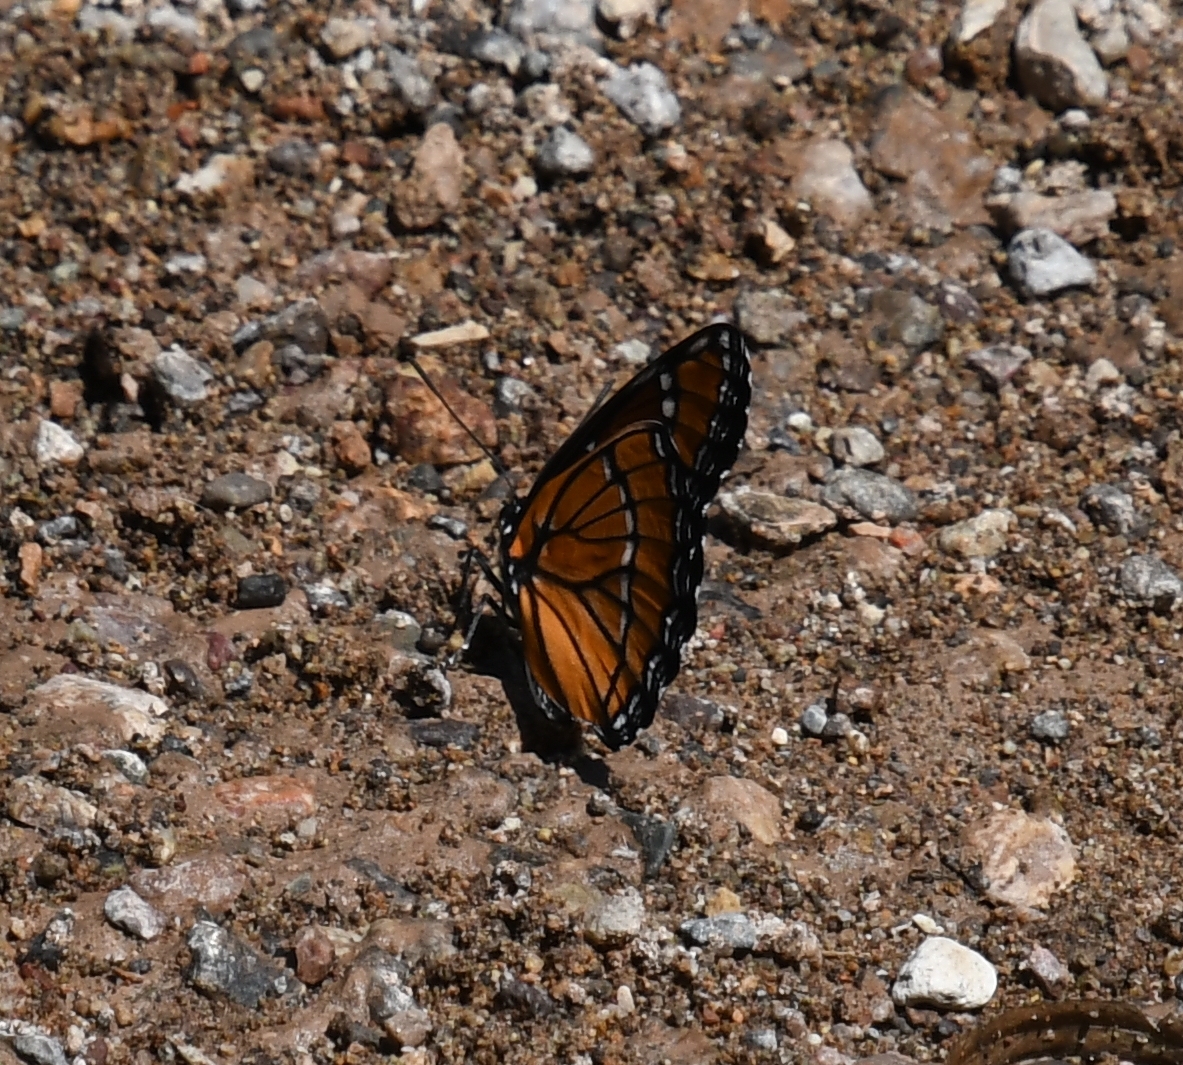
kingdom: Animalia
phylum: Arthropoda
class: Insecta
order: Lepidoptera
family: Nymphalidae
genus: Limenitis
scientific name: Limenitis archippus
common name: Viceroy
